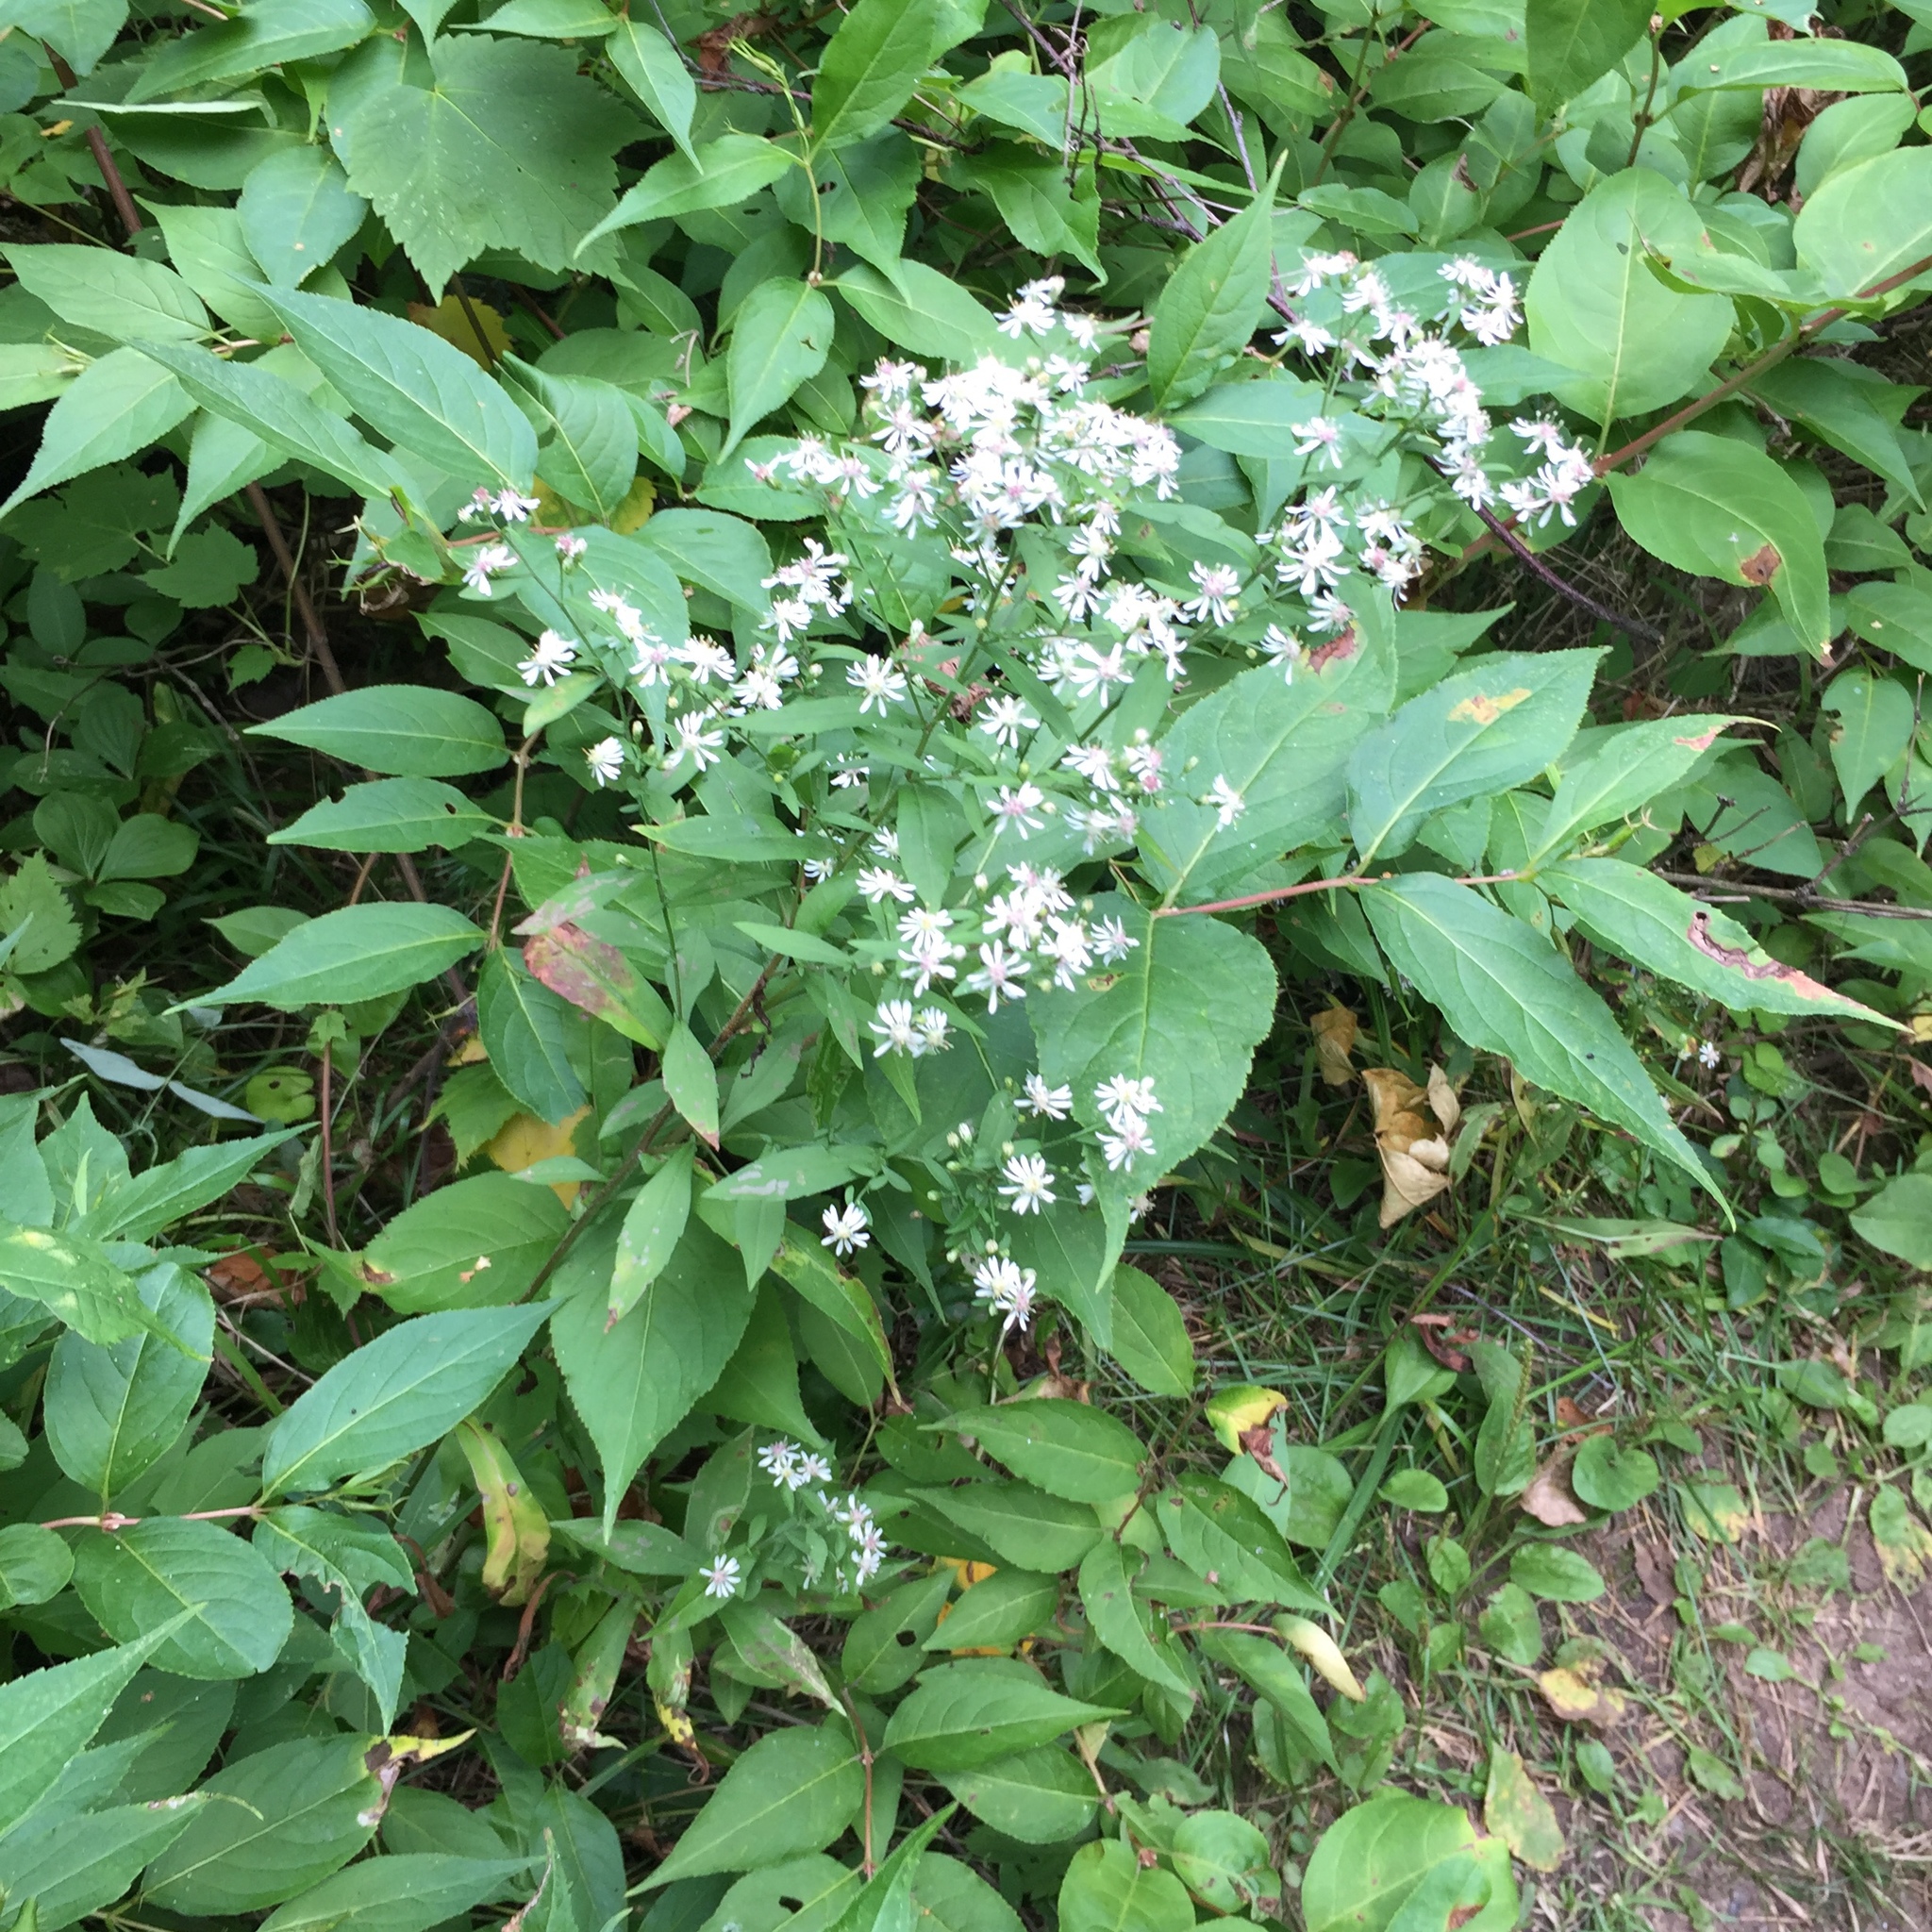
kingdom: Plantae
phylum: Tracheophyta
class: Magnoliopsida
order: Asterales
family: Asteraceae
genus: Symphyotrichum
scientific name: Symphyotrichum lateriflorum
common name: Calico aster
